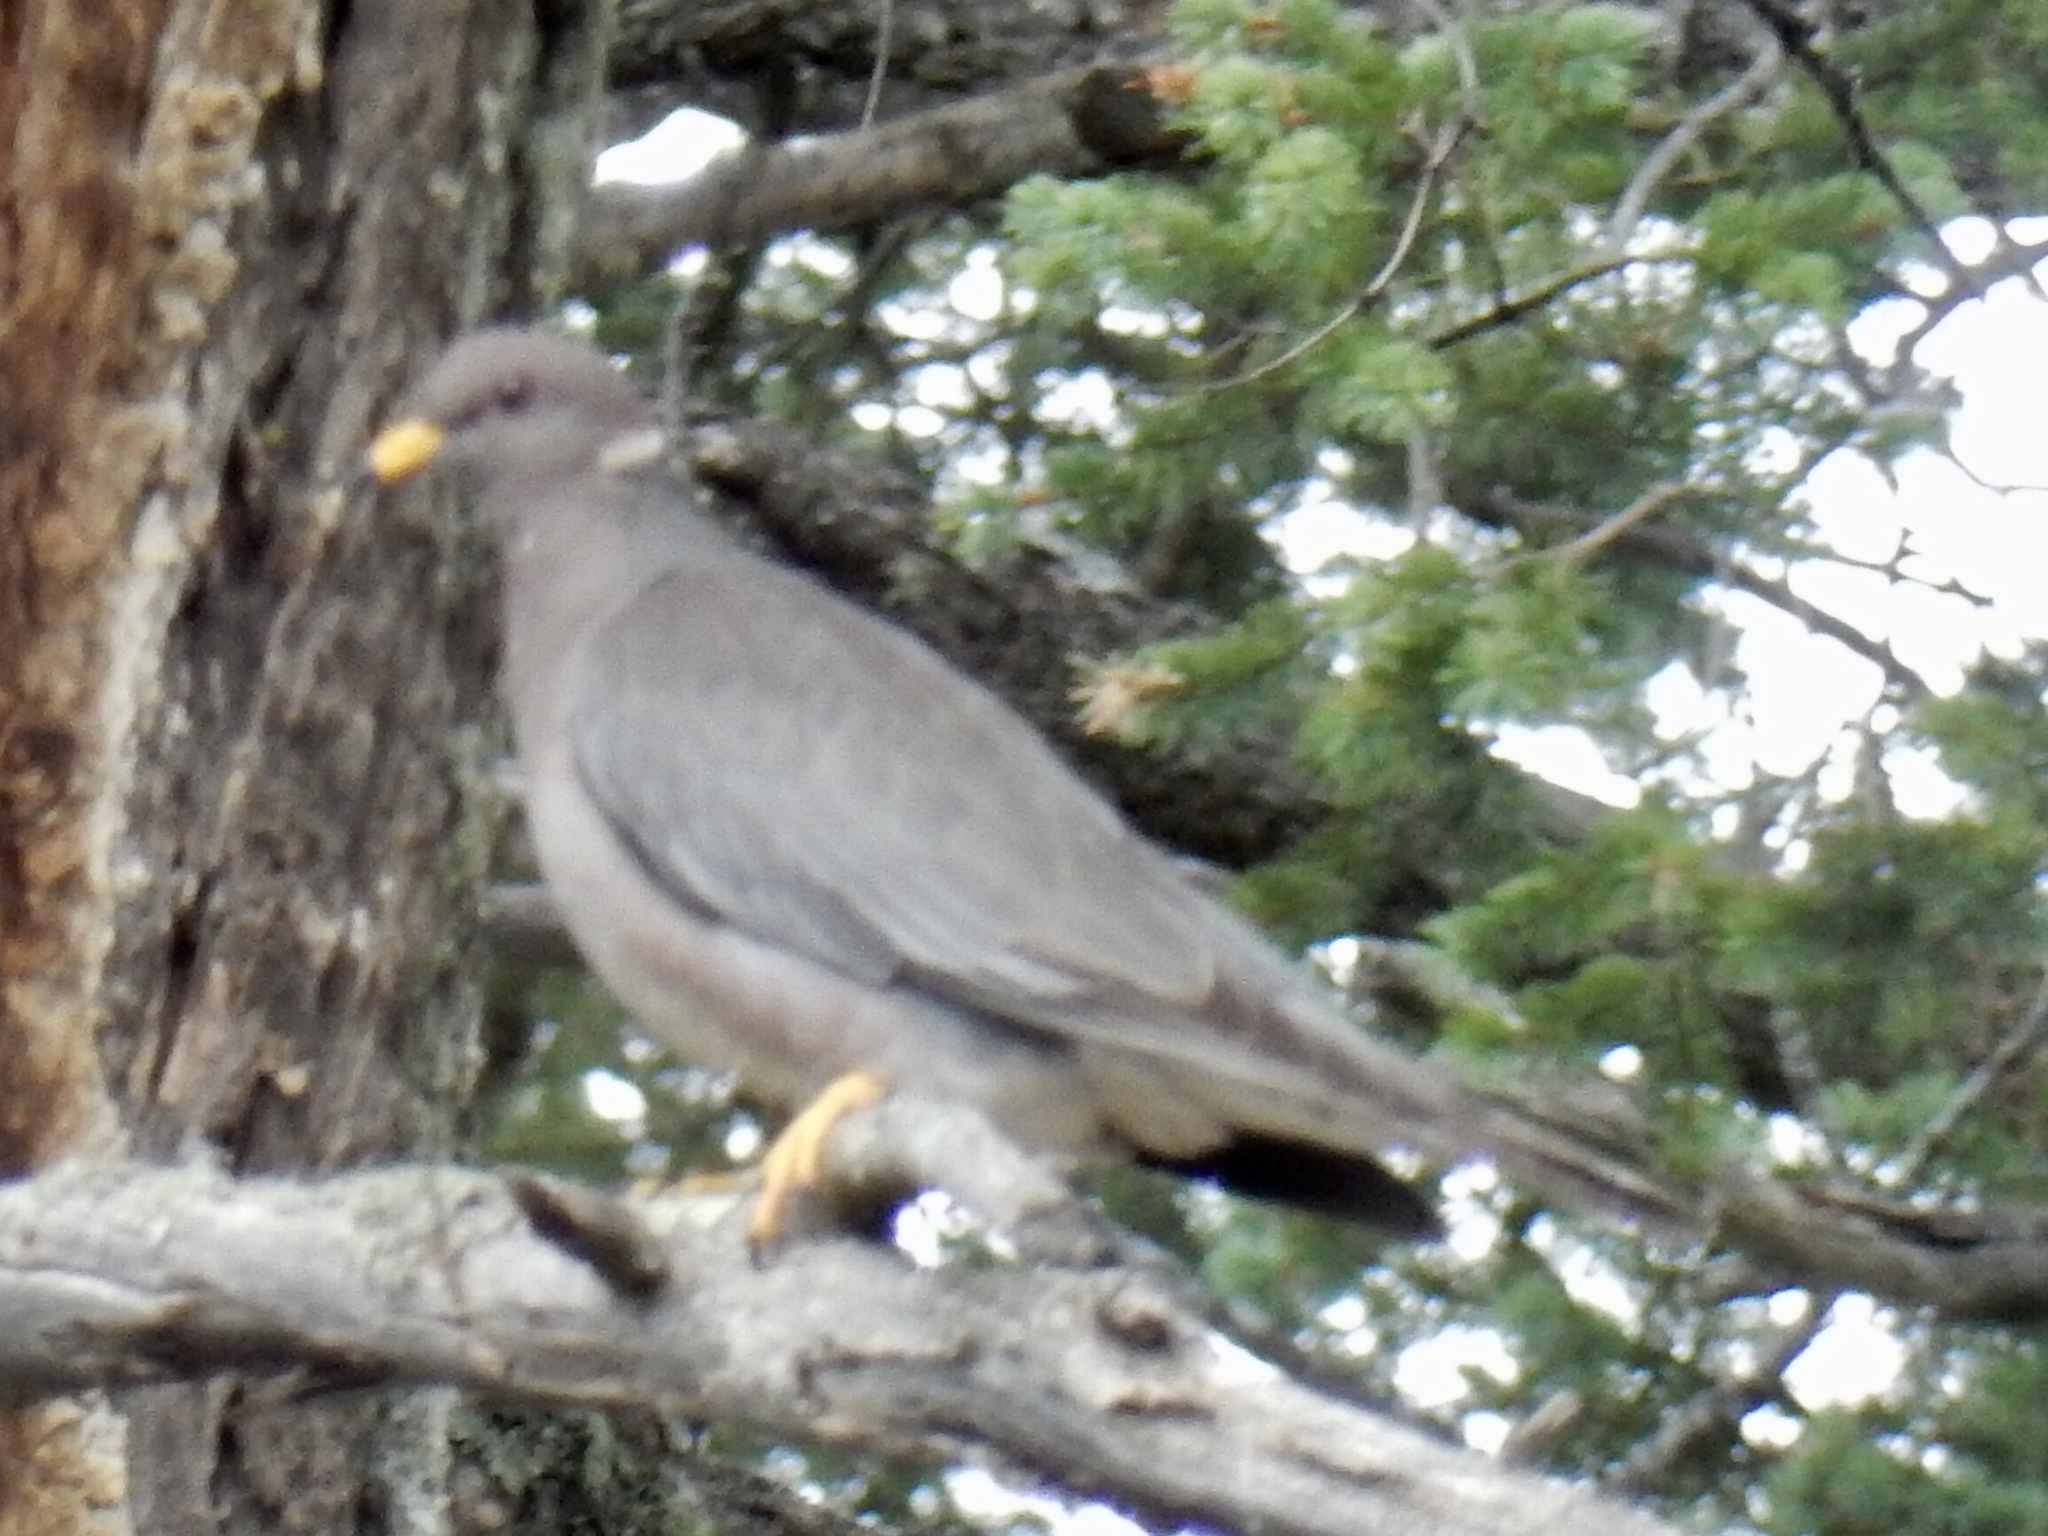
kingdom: Animalia
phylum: Chordata
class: Aves
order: Columbiformes
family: Columbidae
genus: Patagioenas
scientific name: Patagioenas fasciata
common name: Band-tailed pigeon
